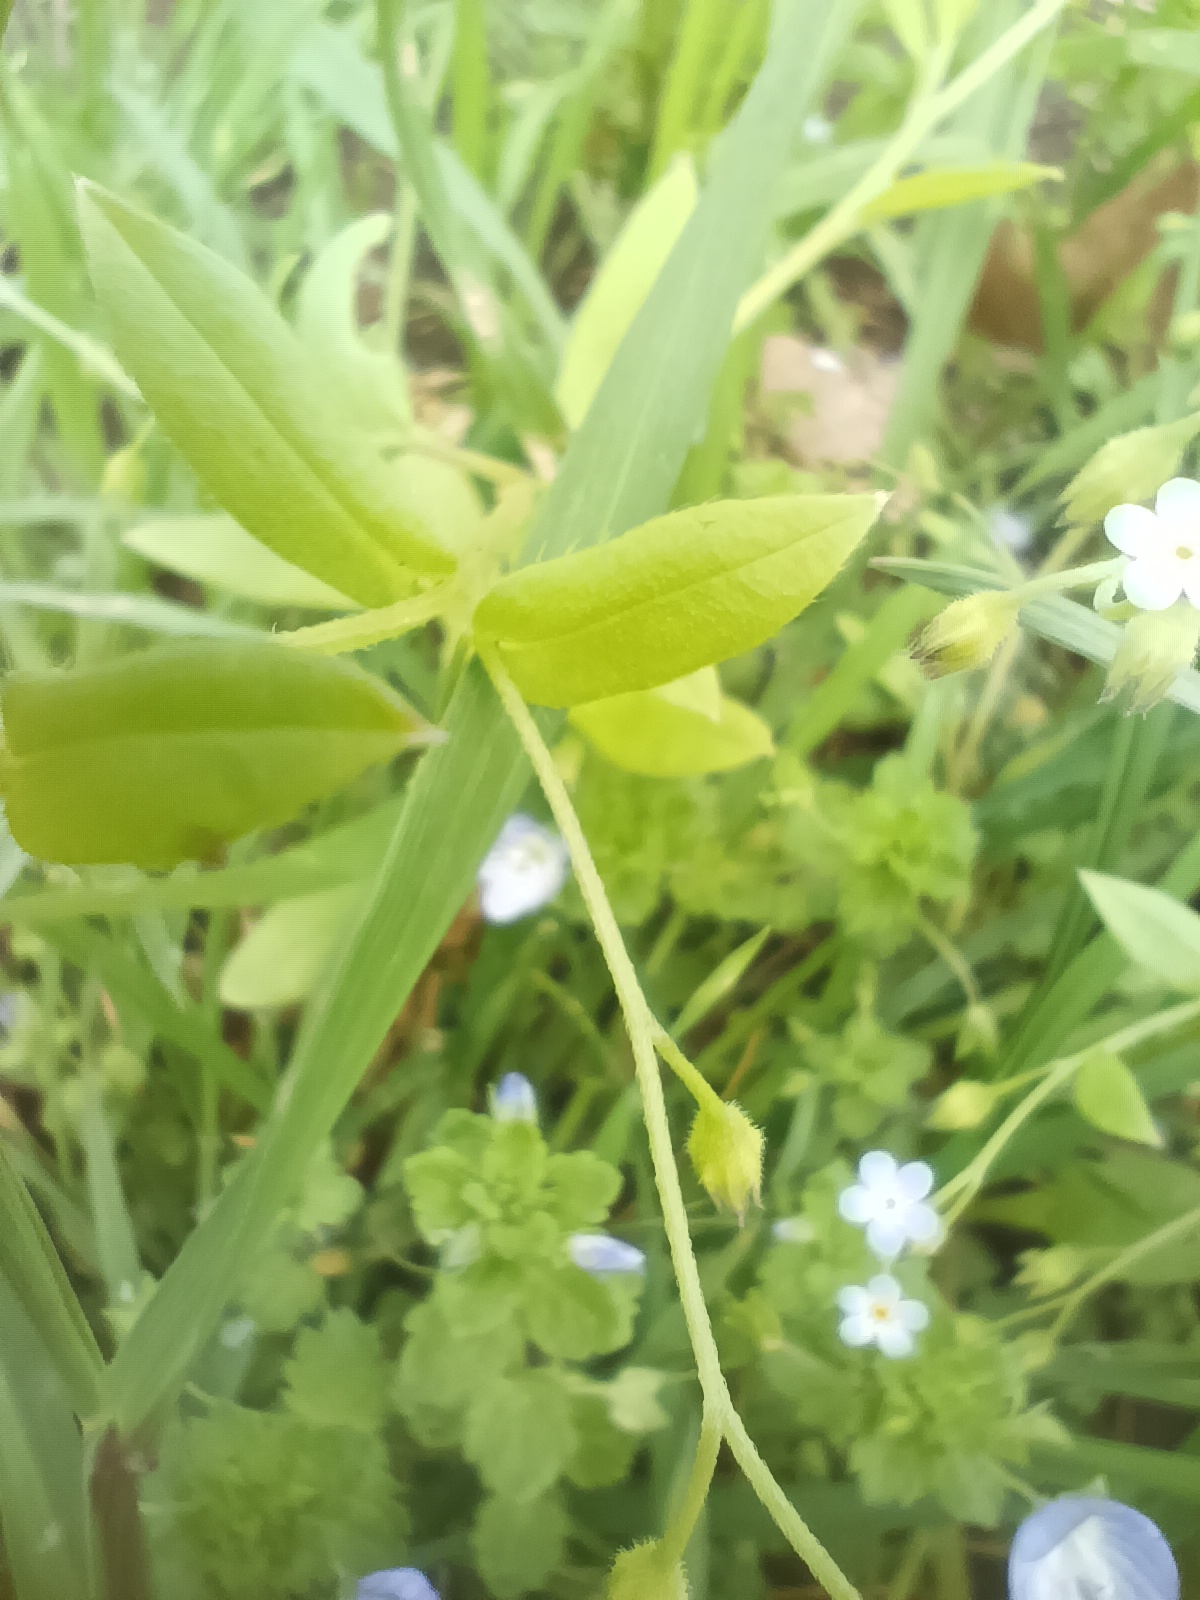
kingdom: Plantae
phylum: Tracheophyta
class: Magnoliopsida
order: Boraginales
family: Boraginaceae
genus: Myosotis
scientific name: Myosotis sparsiflora
